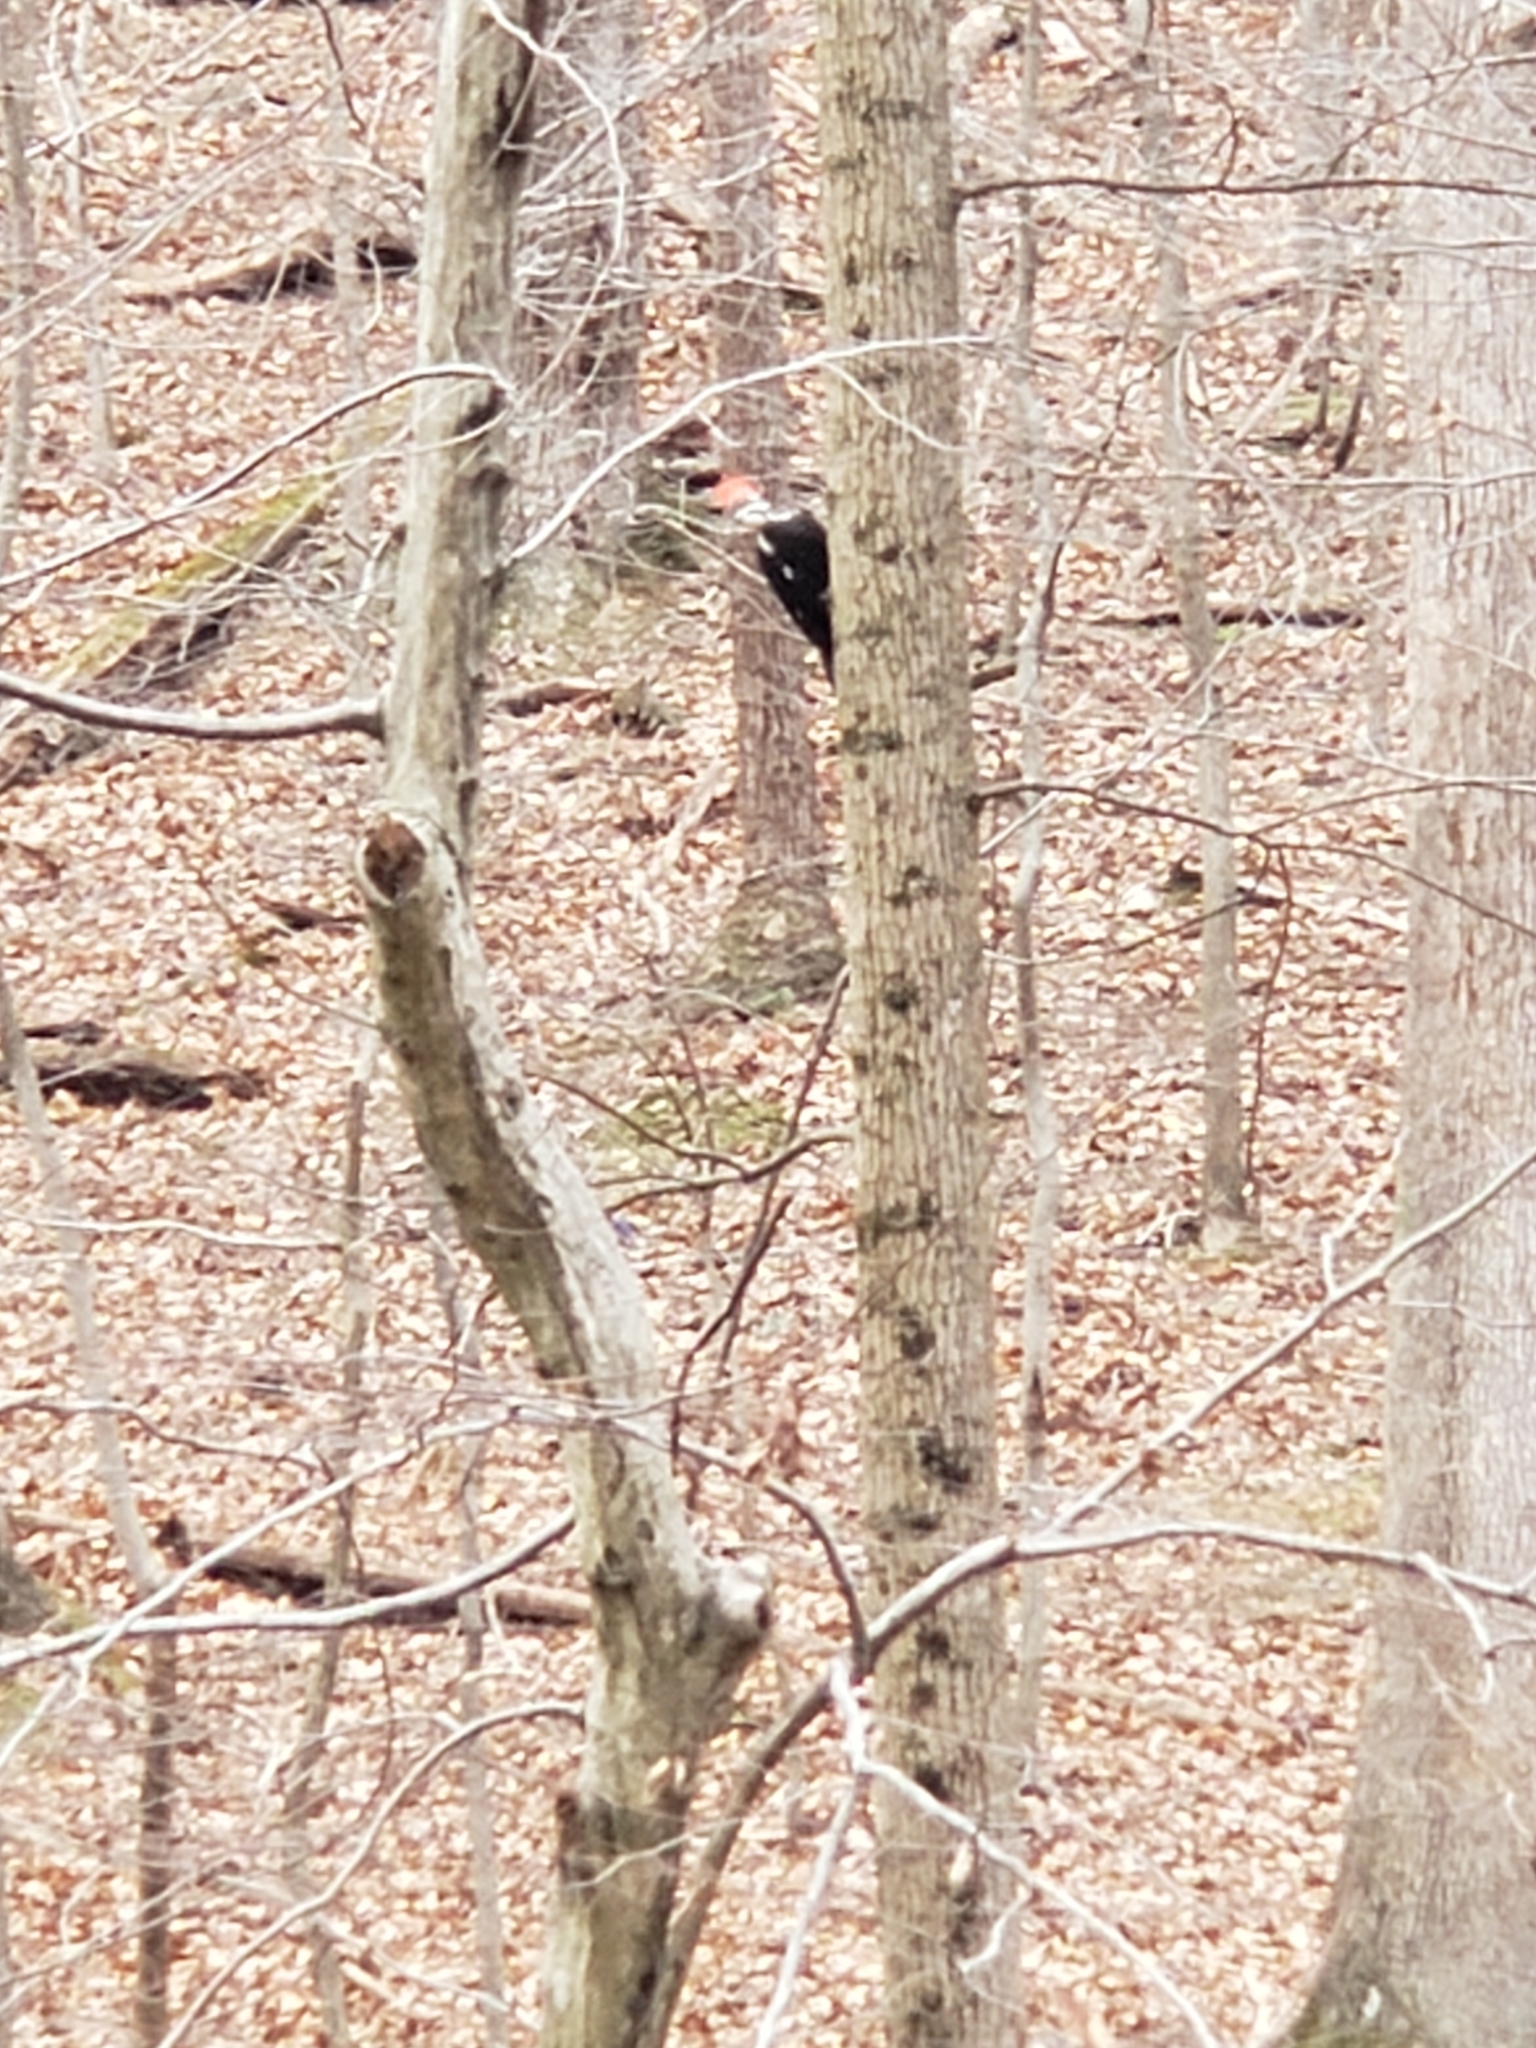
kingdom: Animalia
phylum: Chordata
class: Aves
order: Piciformes
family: Picidae
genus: Dryocopus
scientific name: Dryocopus pileatus
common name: Pileated woodpecker
